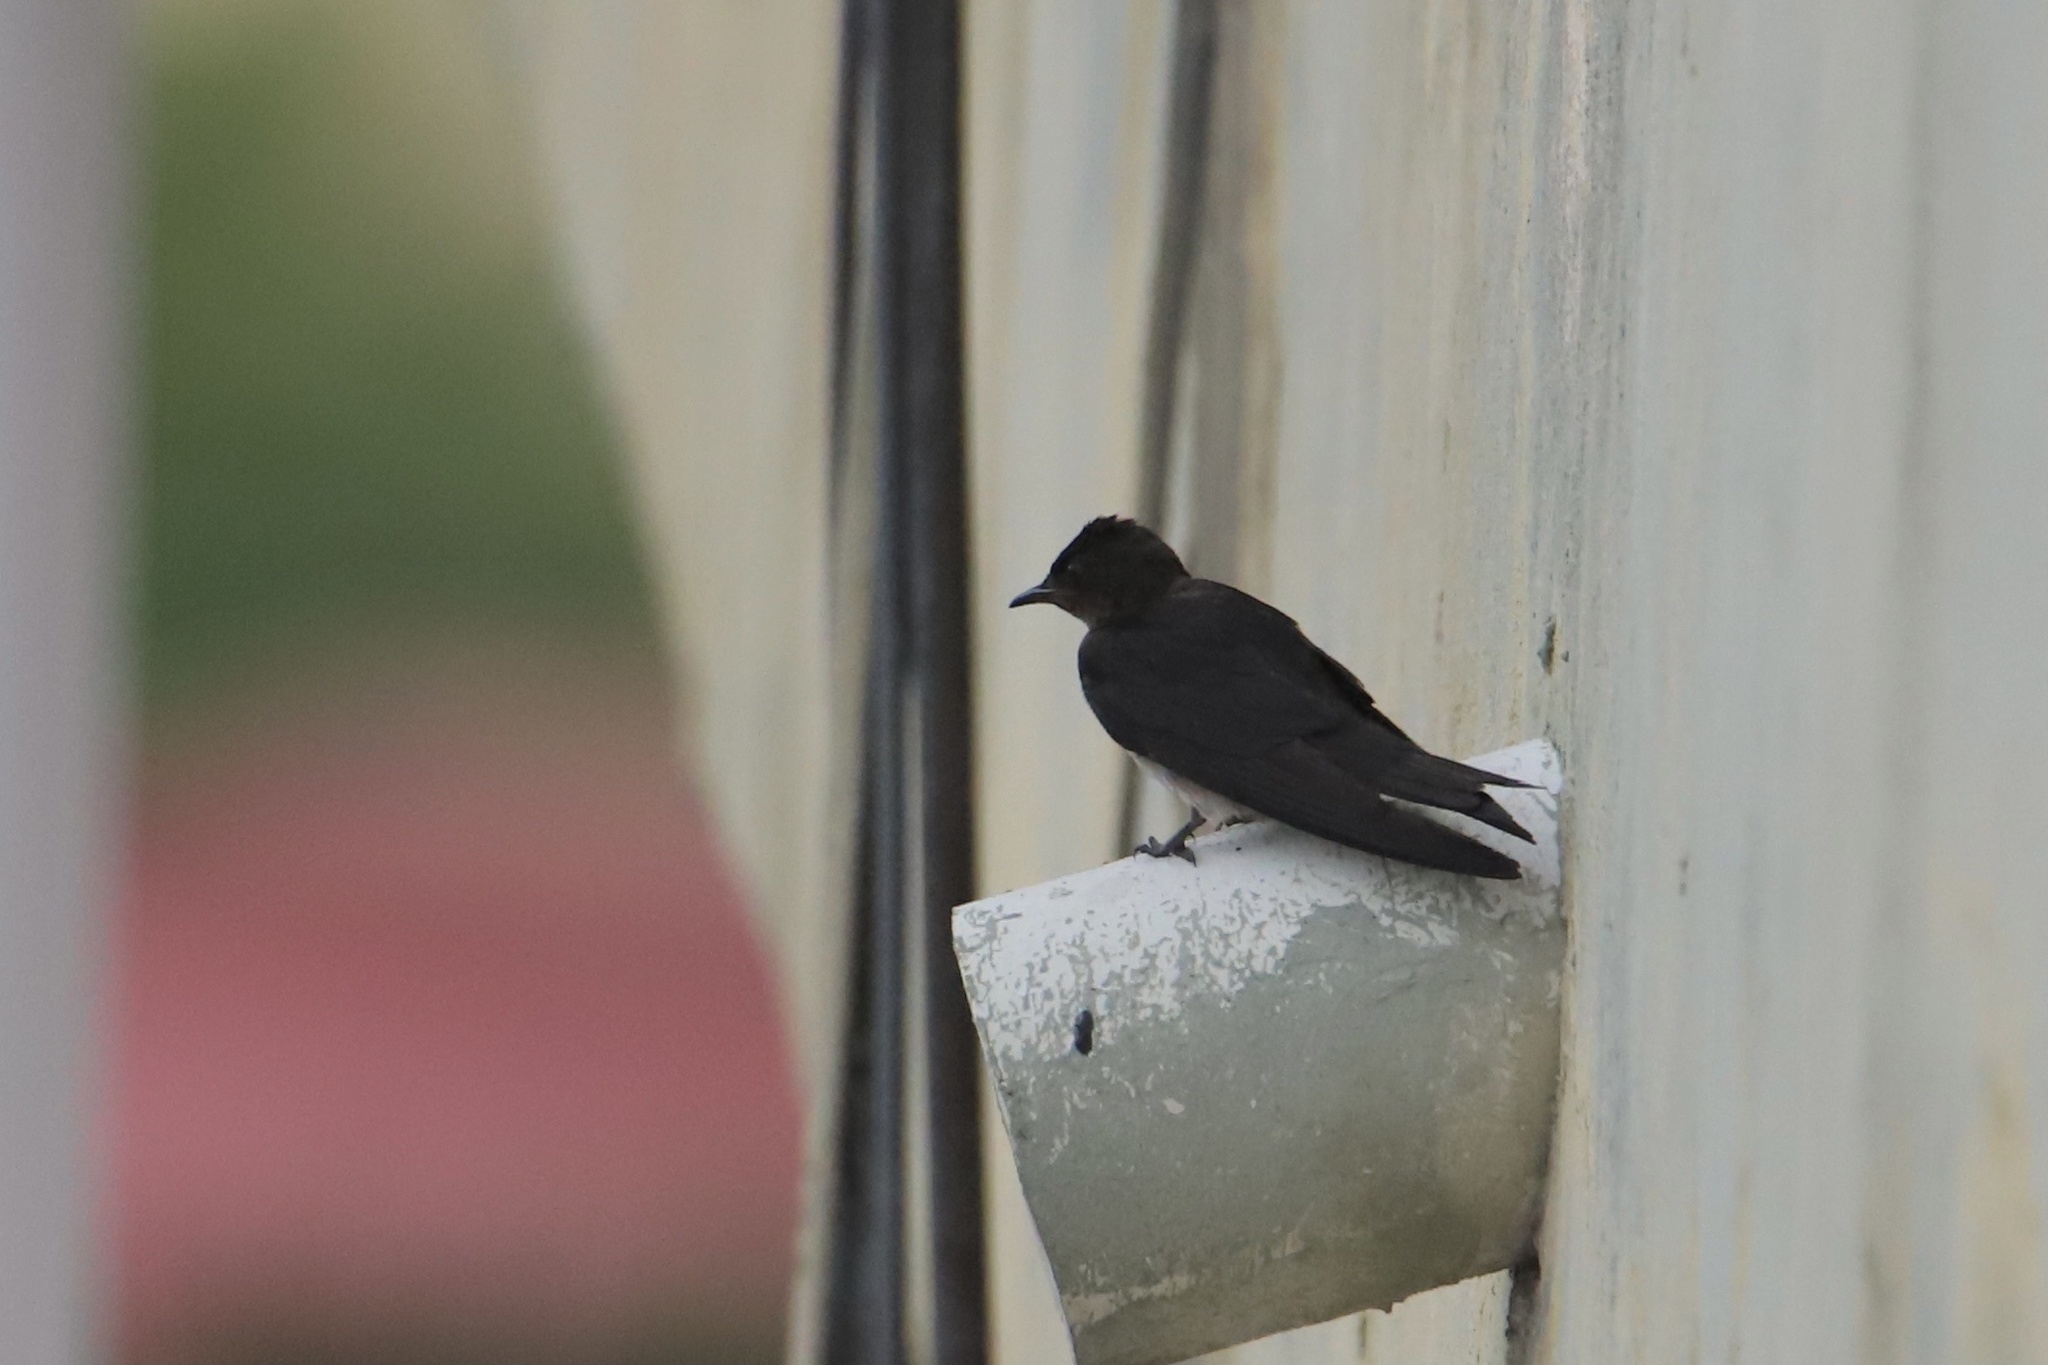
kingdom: Animalia
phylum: Chordata
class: Aves
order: Passeriformes
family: Hirundinidae
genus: Progne
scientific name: Progne chalybea
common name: Grey-breasted martin
